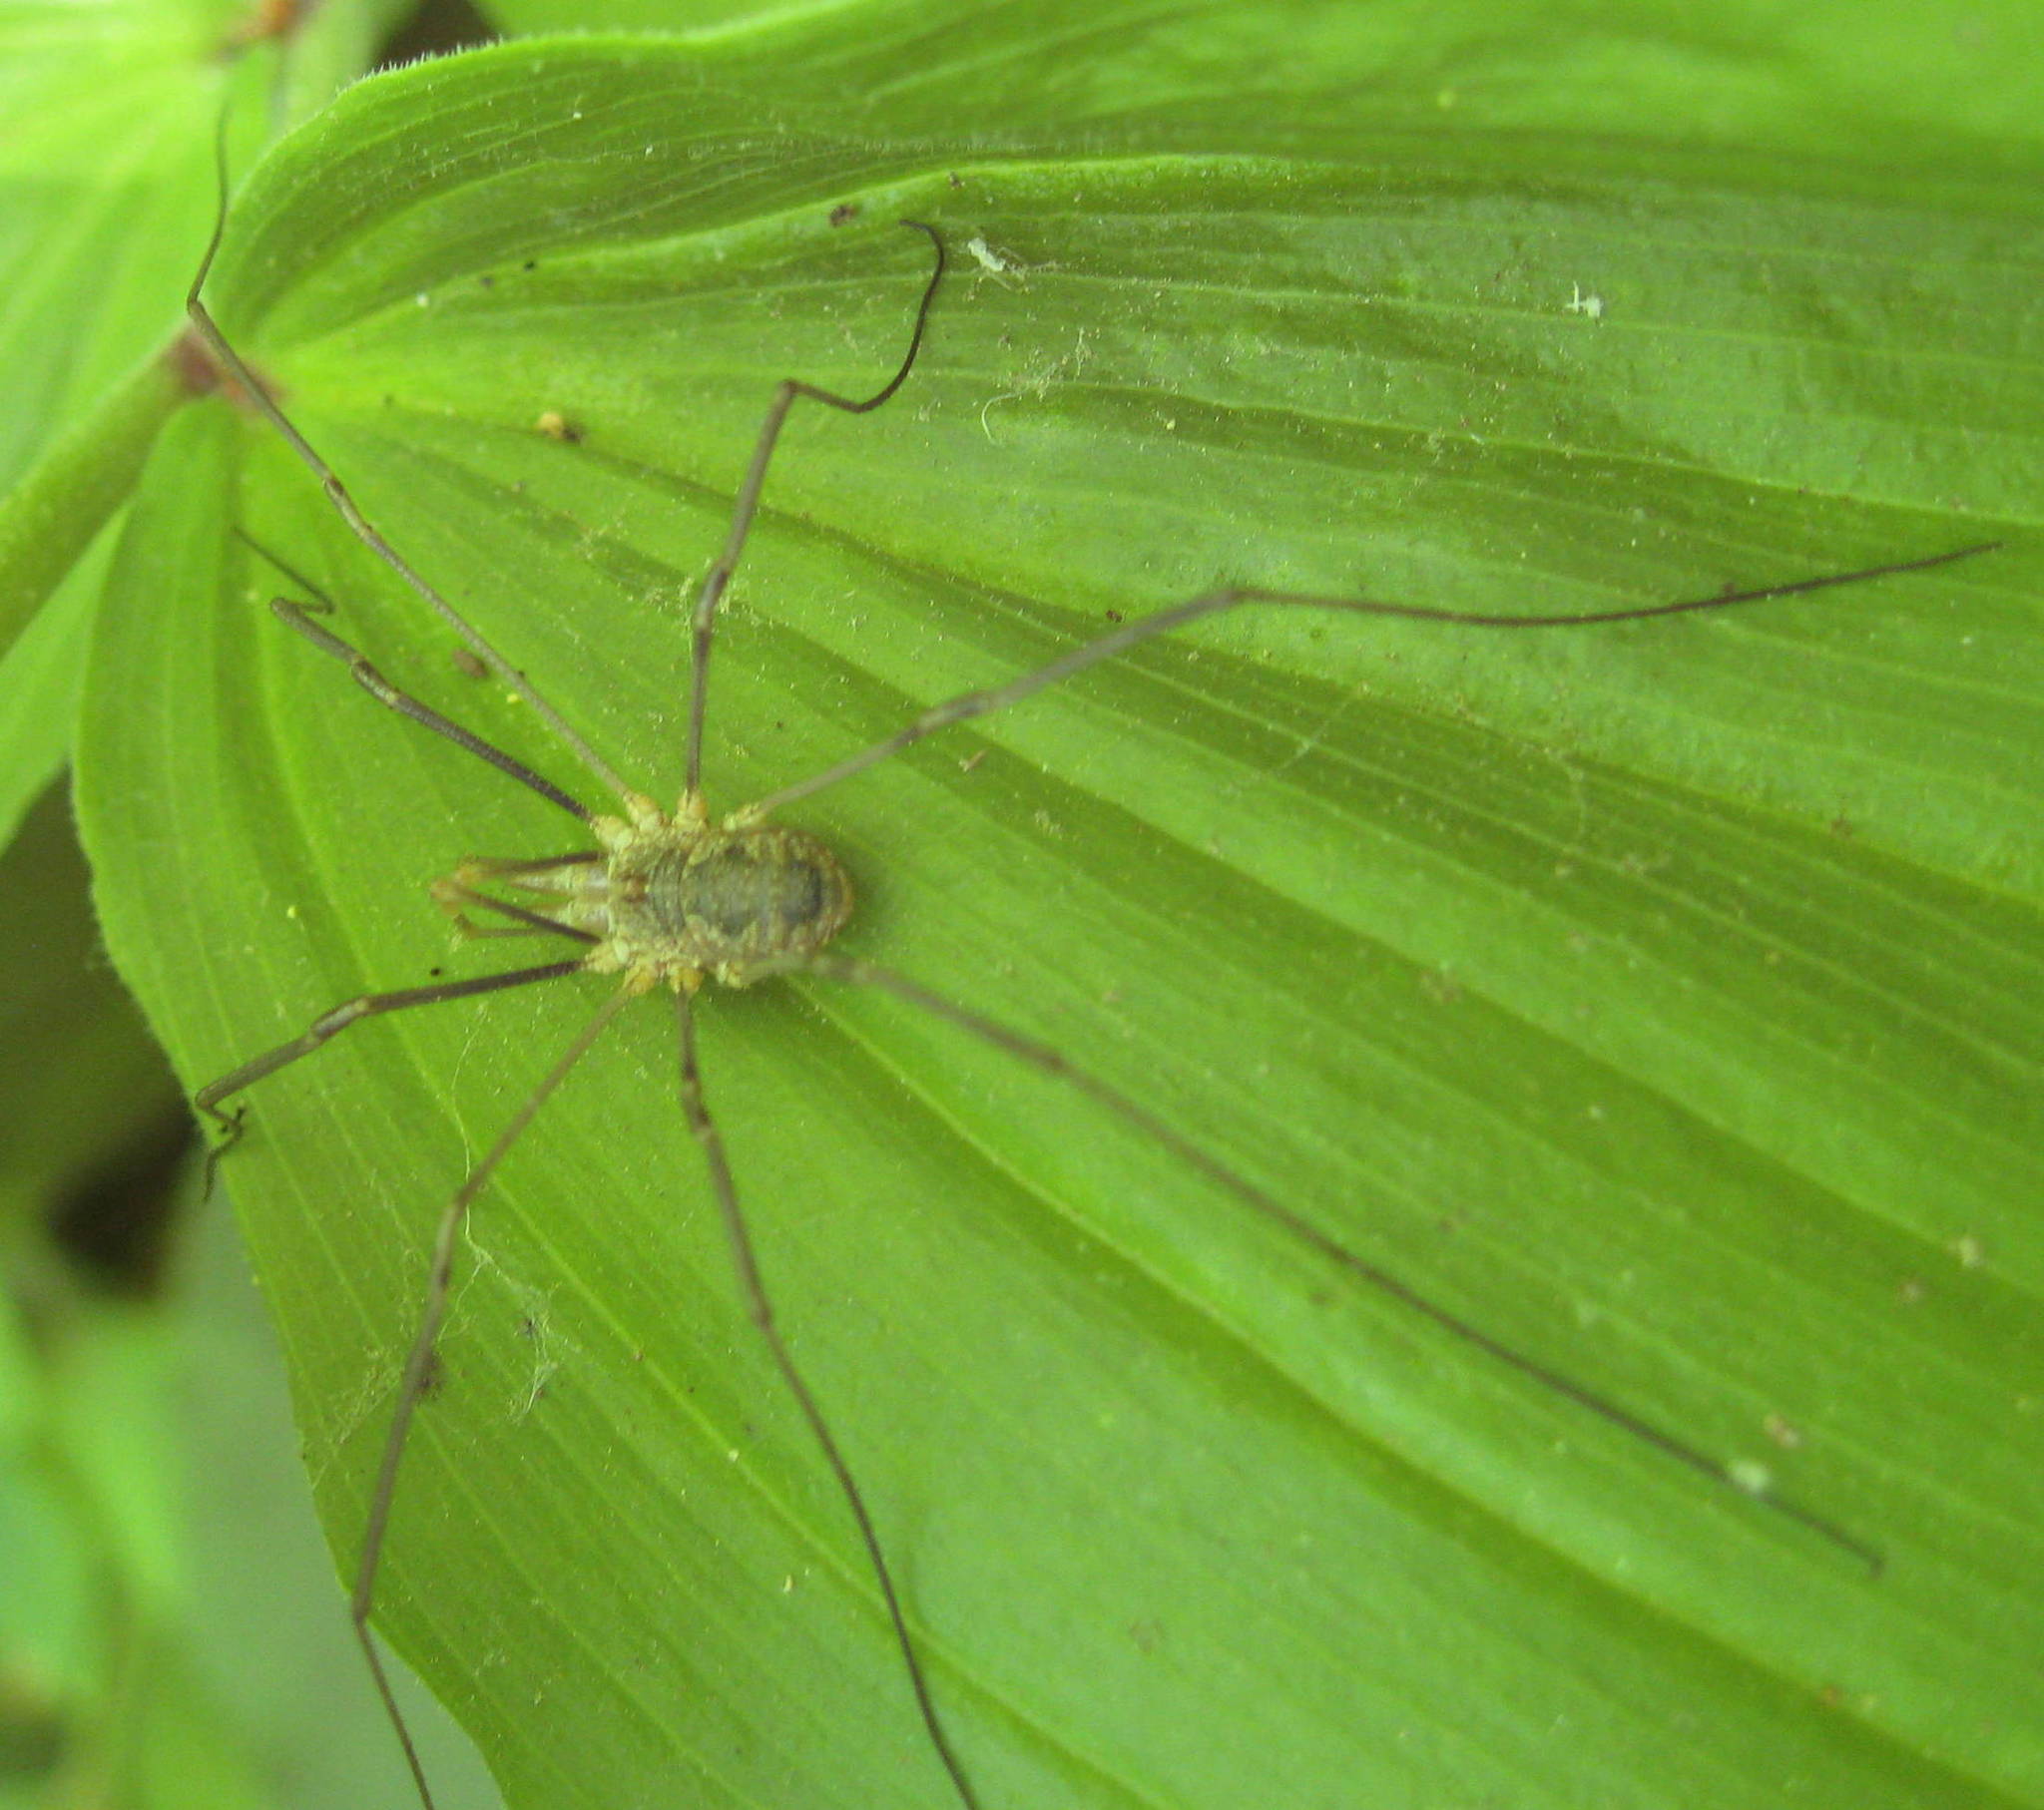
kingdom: Animalia
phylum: Arthropoda
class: Arachnida
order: Opiliones
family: Phalangiidae
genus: Phalangium
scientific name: Phalangium opilio
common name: Daddy longleg
